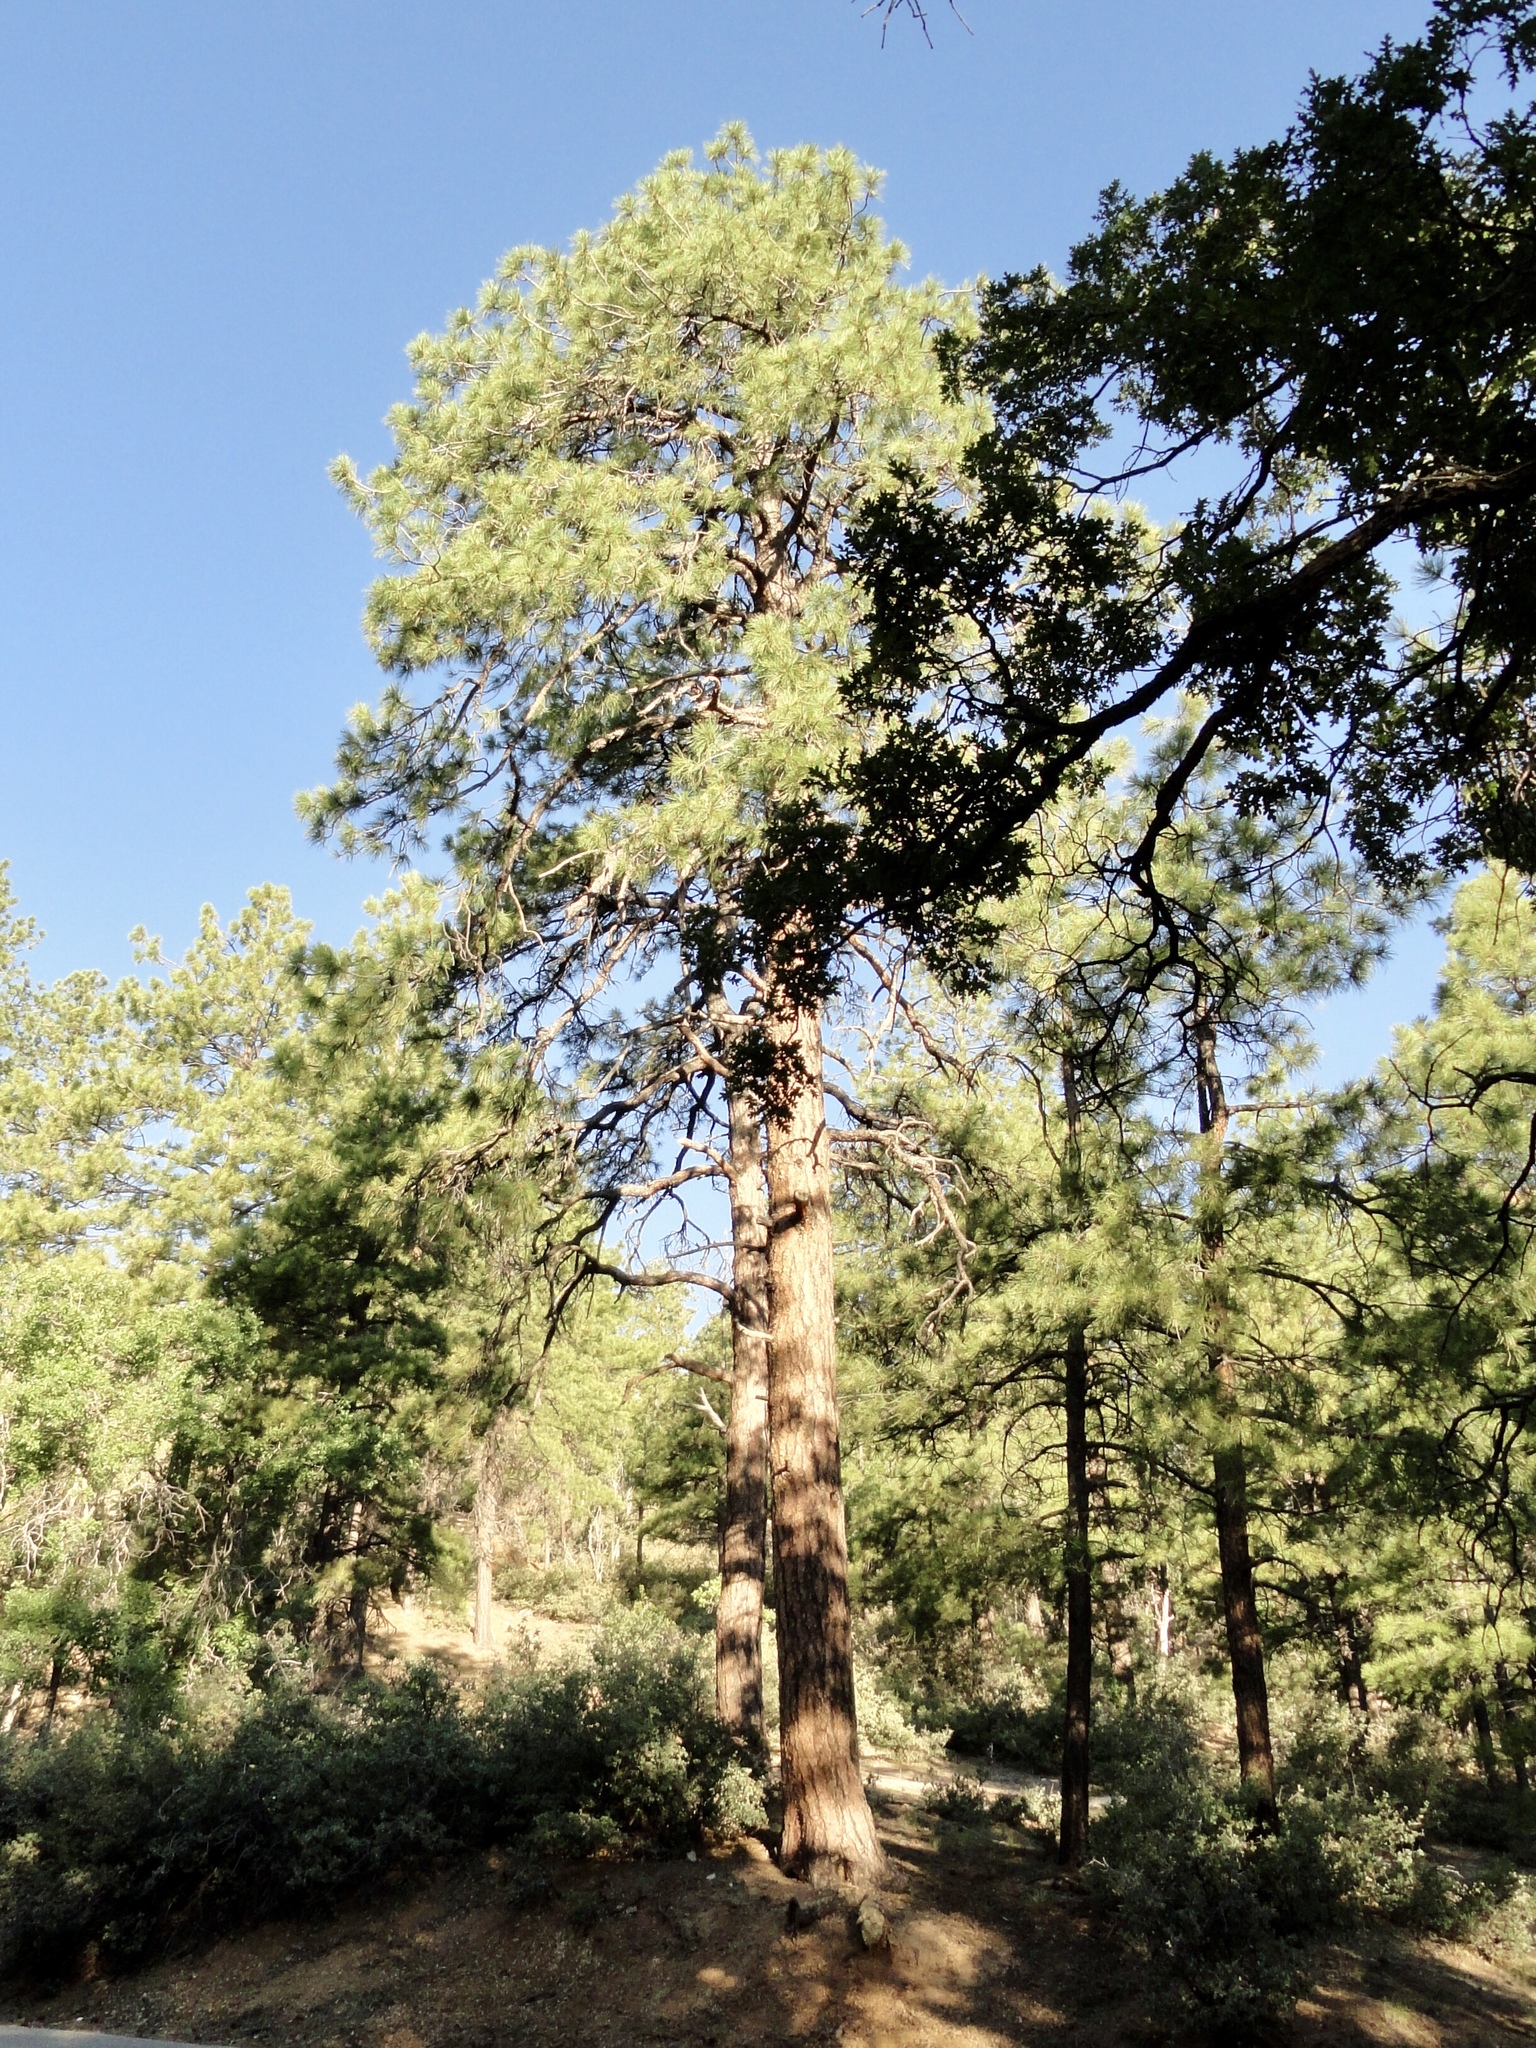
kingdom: Plantae
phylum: Tracheophyta
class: Pinopsida
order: Pinales
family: Pinaceae
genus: Pinus
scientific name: Pinus ponderosa
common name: Western yellow-pine
